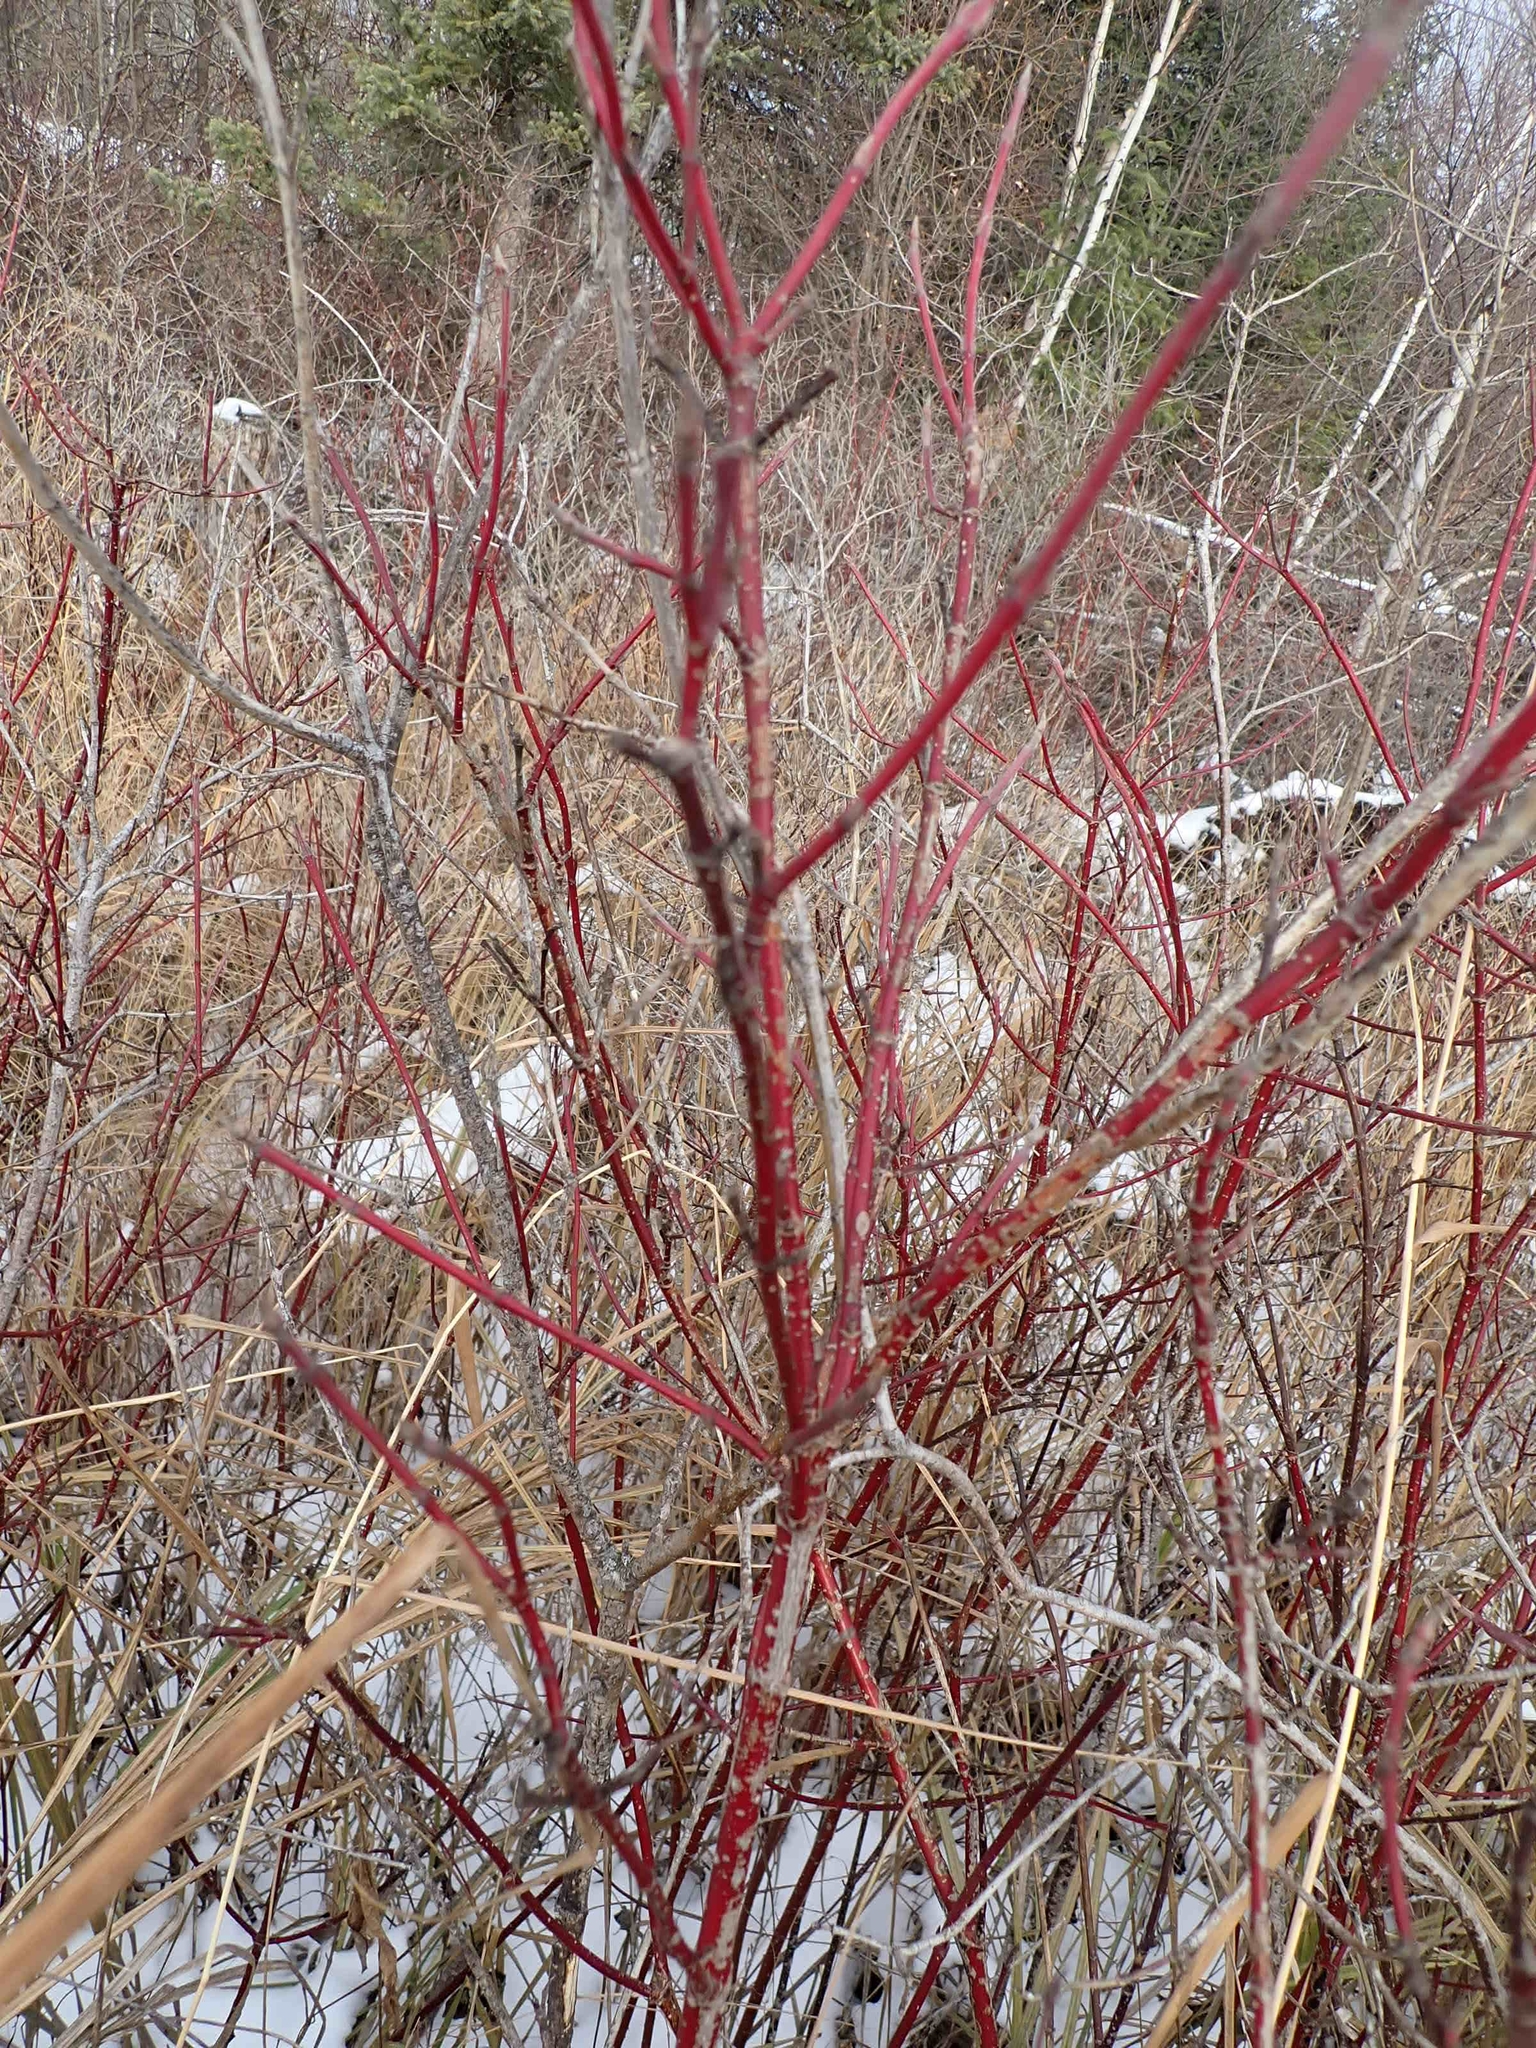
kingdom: Plantae
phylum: Tracheophyta
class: Magnoliopsida
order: Cornales
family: Cornaceae
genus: Cornus
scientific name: Cornus sericea
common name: Red-osier dogwood
